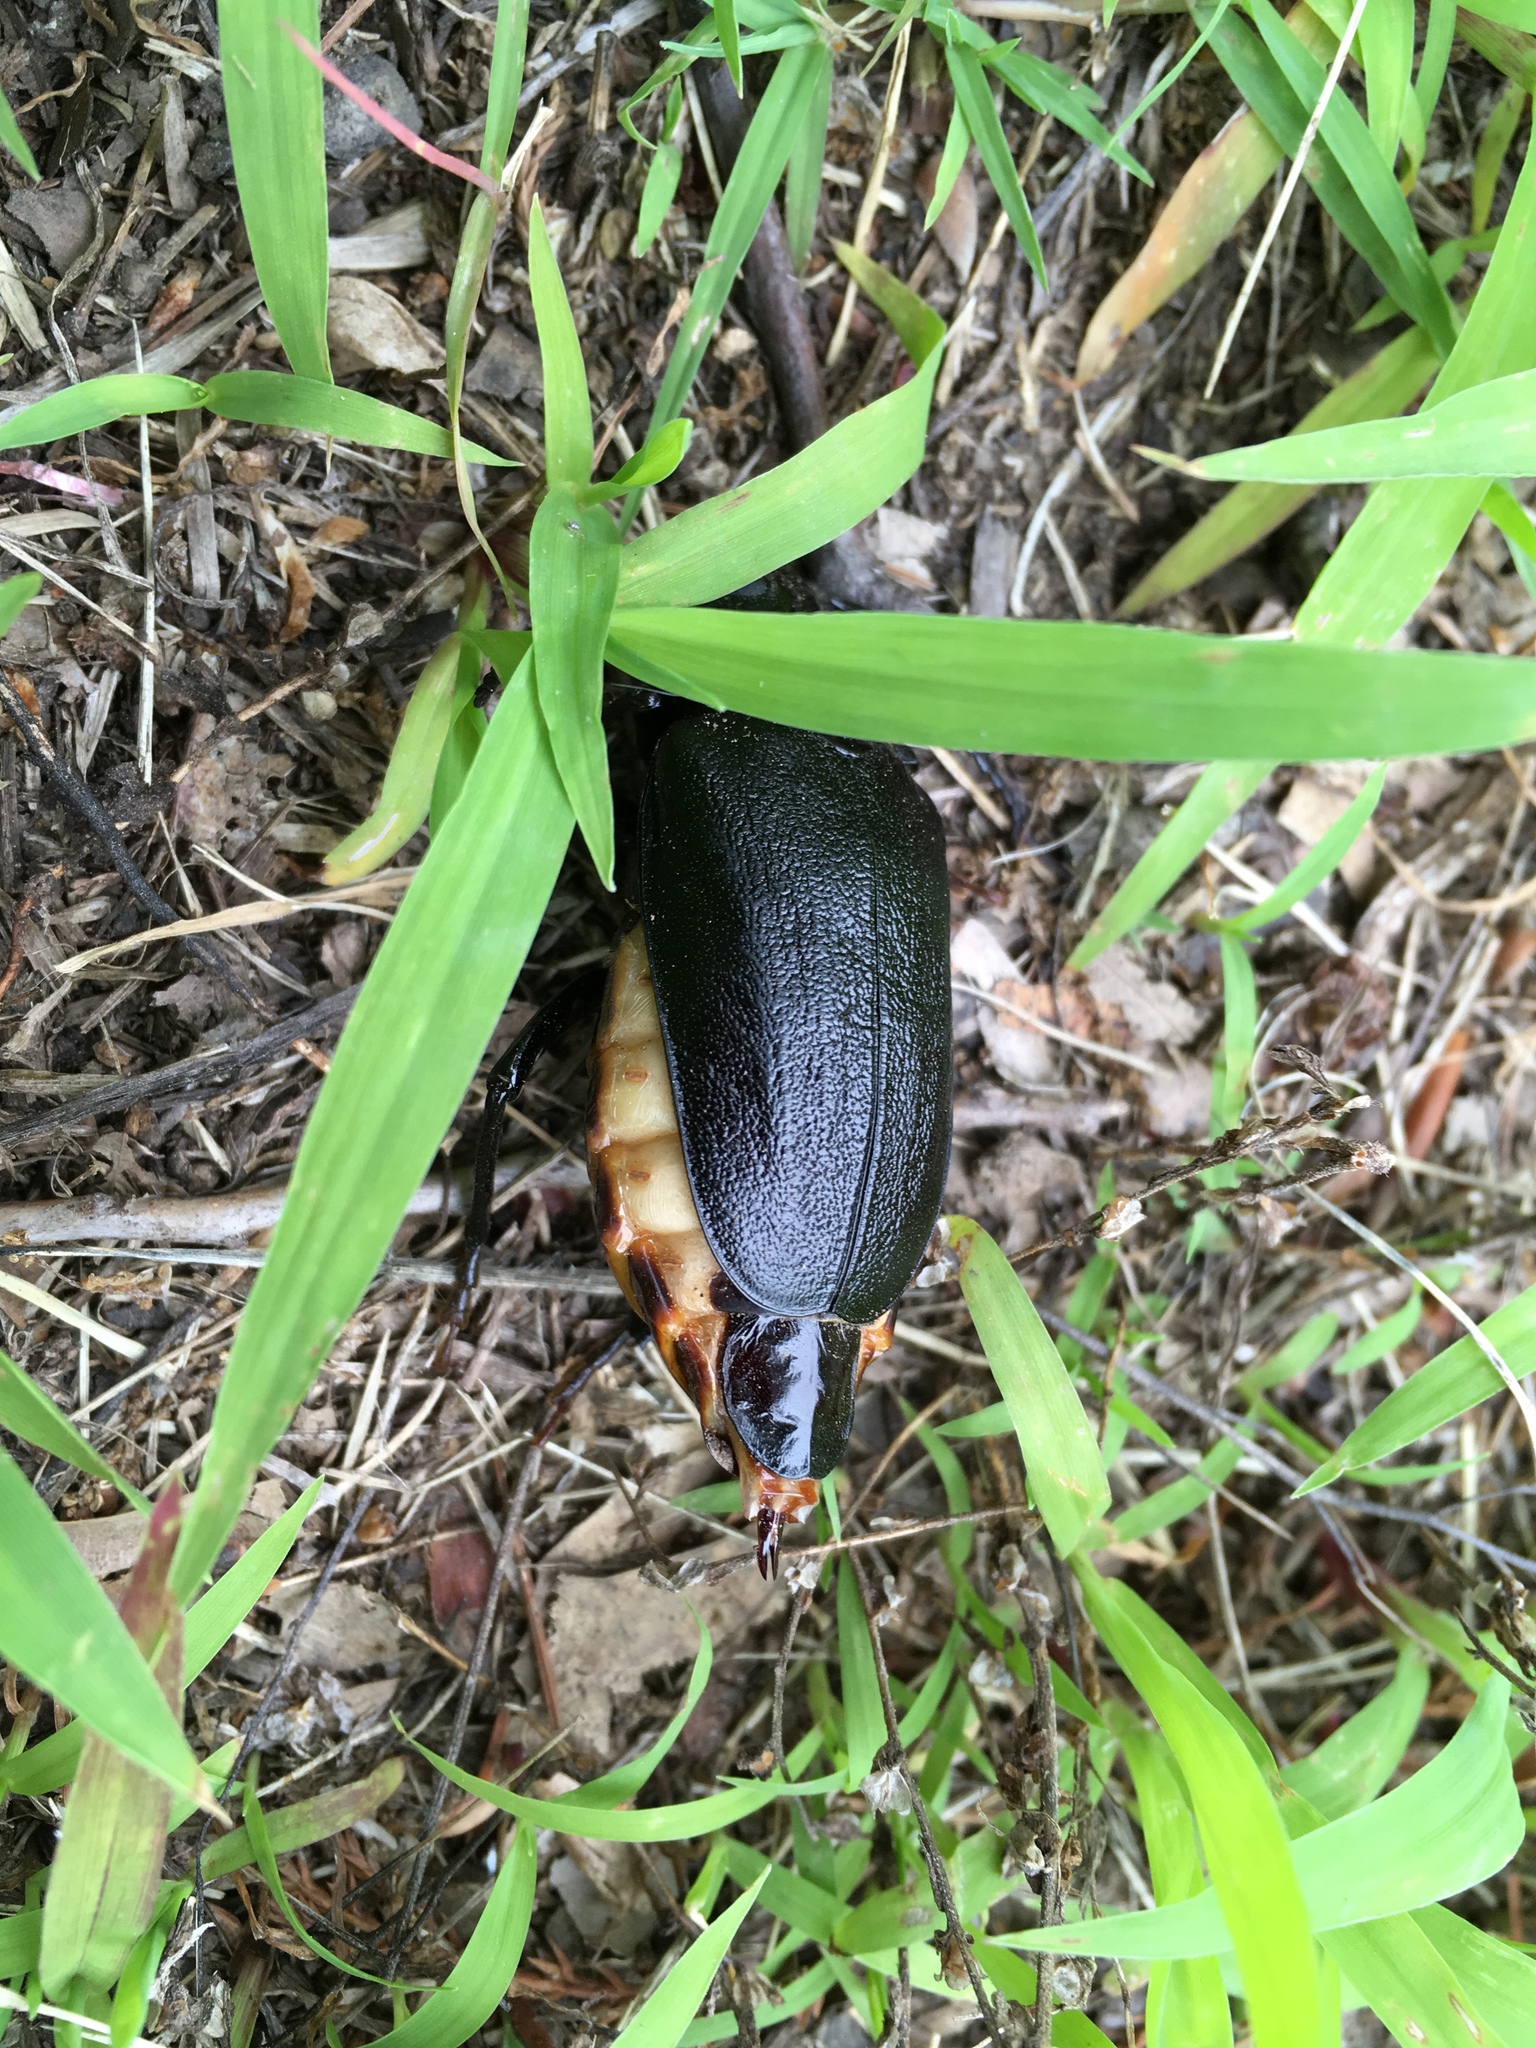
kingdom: Animalia
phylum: Arthropoda
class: Insecta
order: Coleoptera
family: Cerambycidae
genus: Prionus
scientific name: Prionus laticollis
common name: Broad necked prionus
